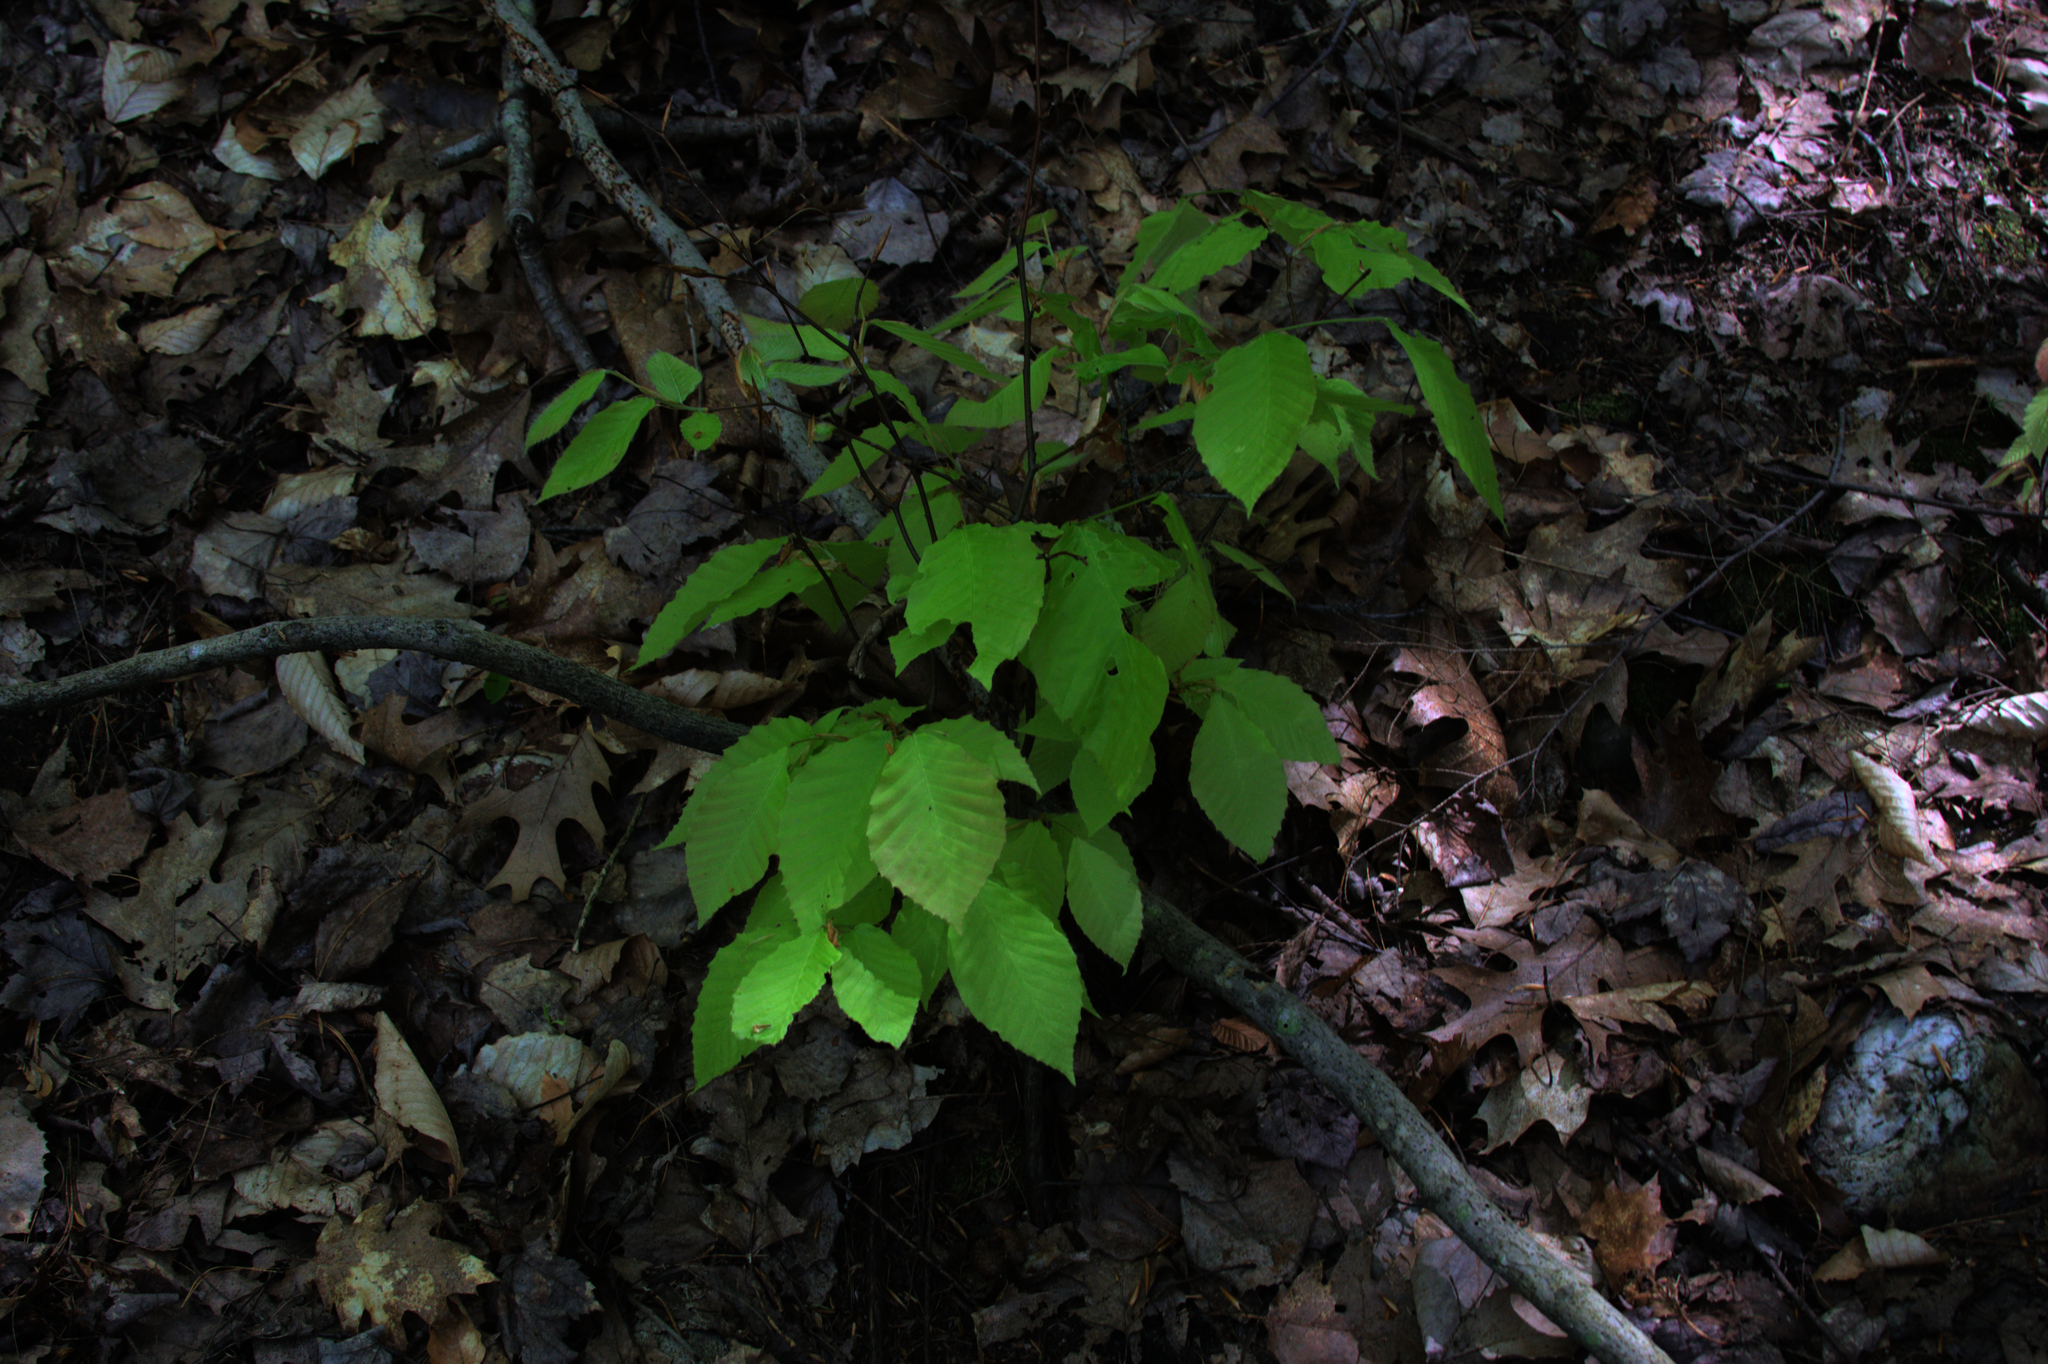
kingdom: Plantae
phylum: Tracheophyta
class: Magnoliopsida
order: Fagales
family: Fagaceae
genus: Fagus
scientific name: Fagus grandifolia
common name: American beech
